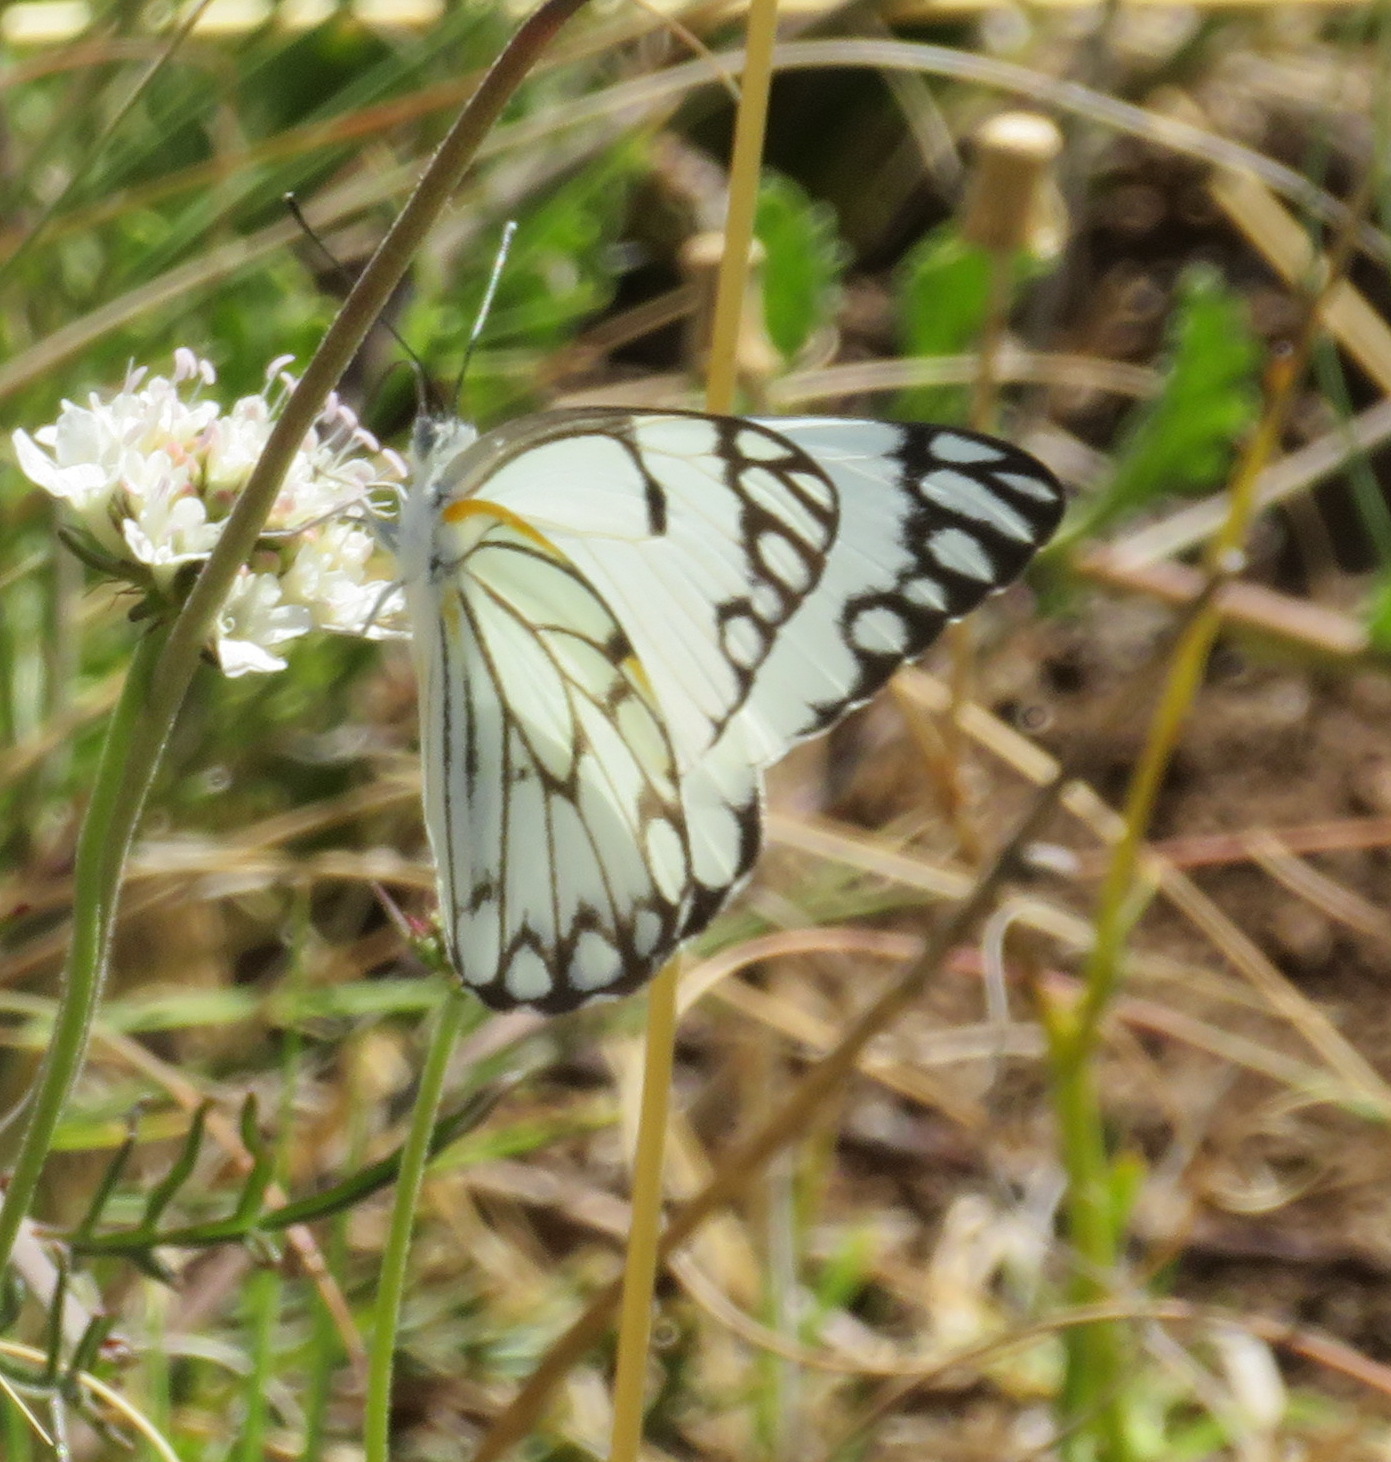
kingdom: Animalia
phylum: Arthropoda
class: Insecta
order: Lepidoptera
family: Pieridae
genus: Belenois
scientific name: Belenois aurota
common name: Brown-veined white
